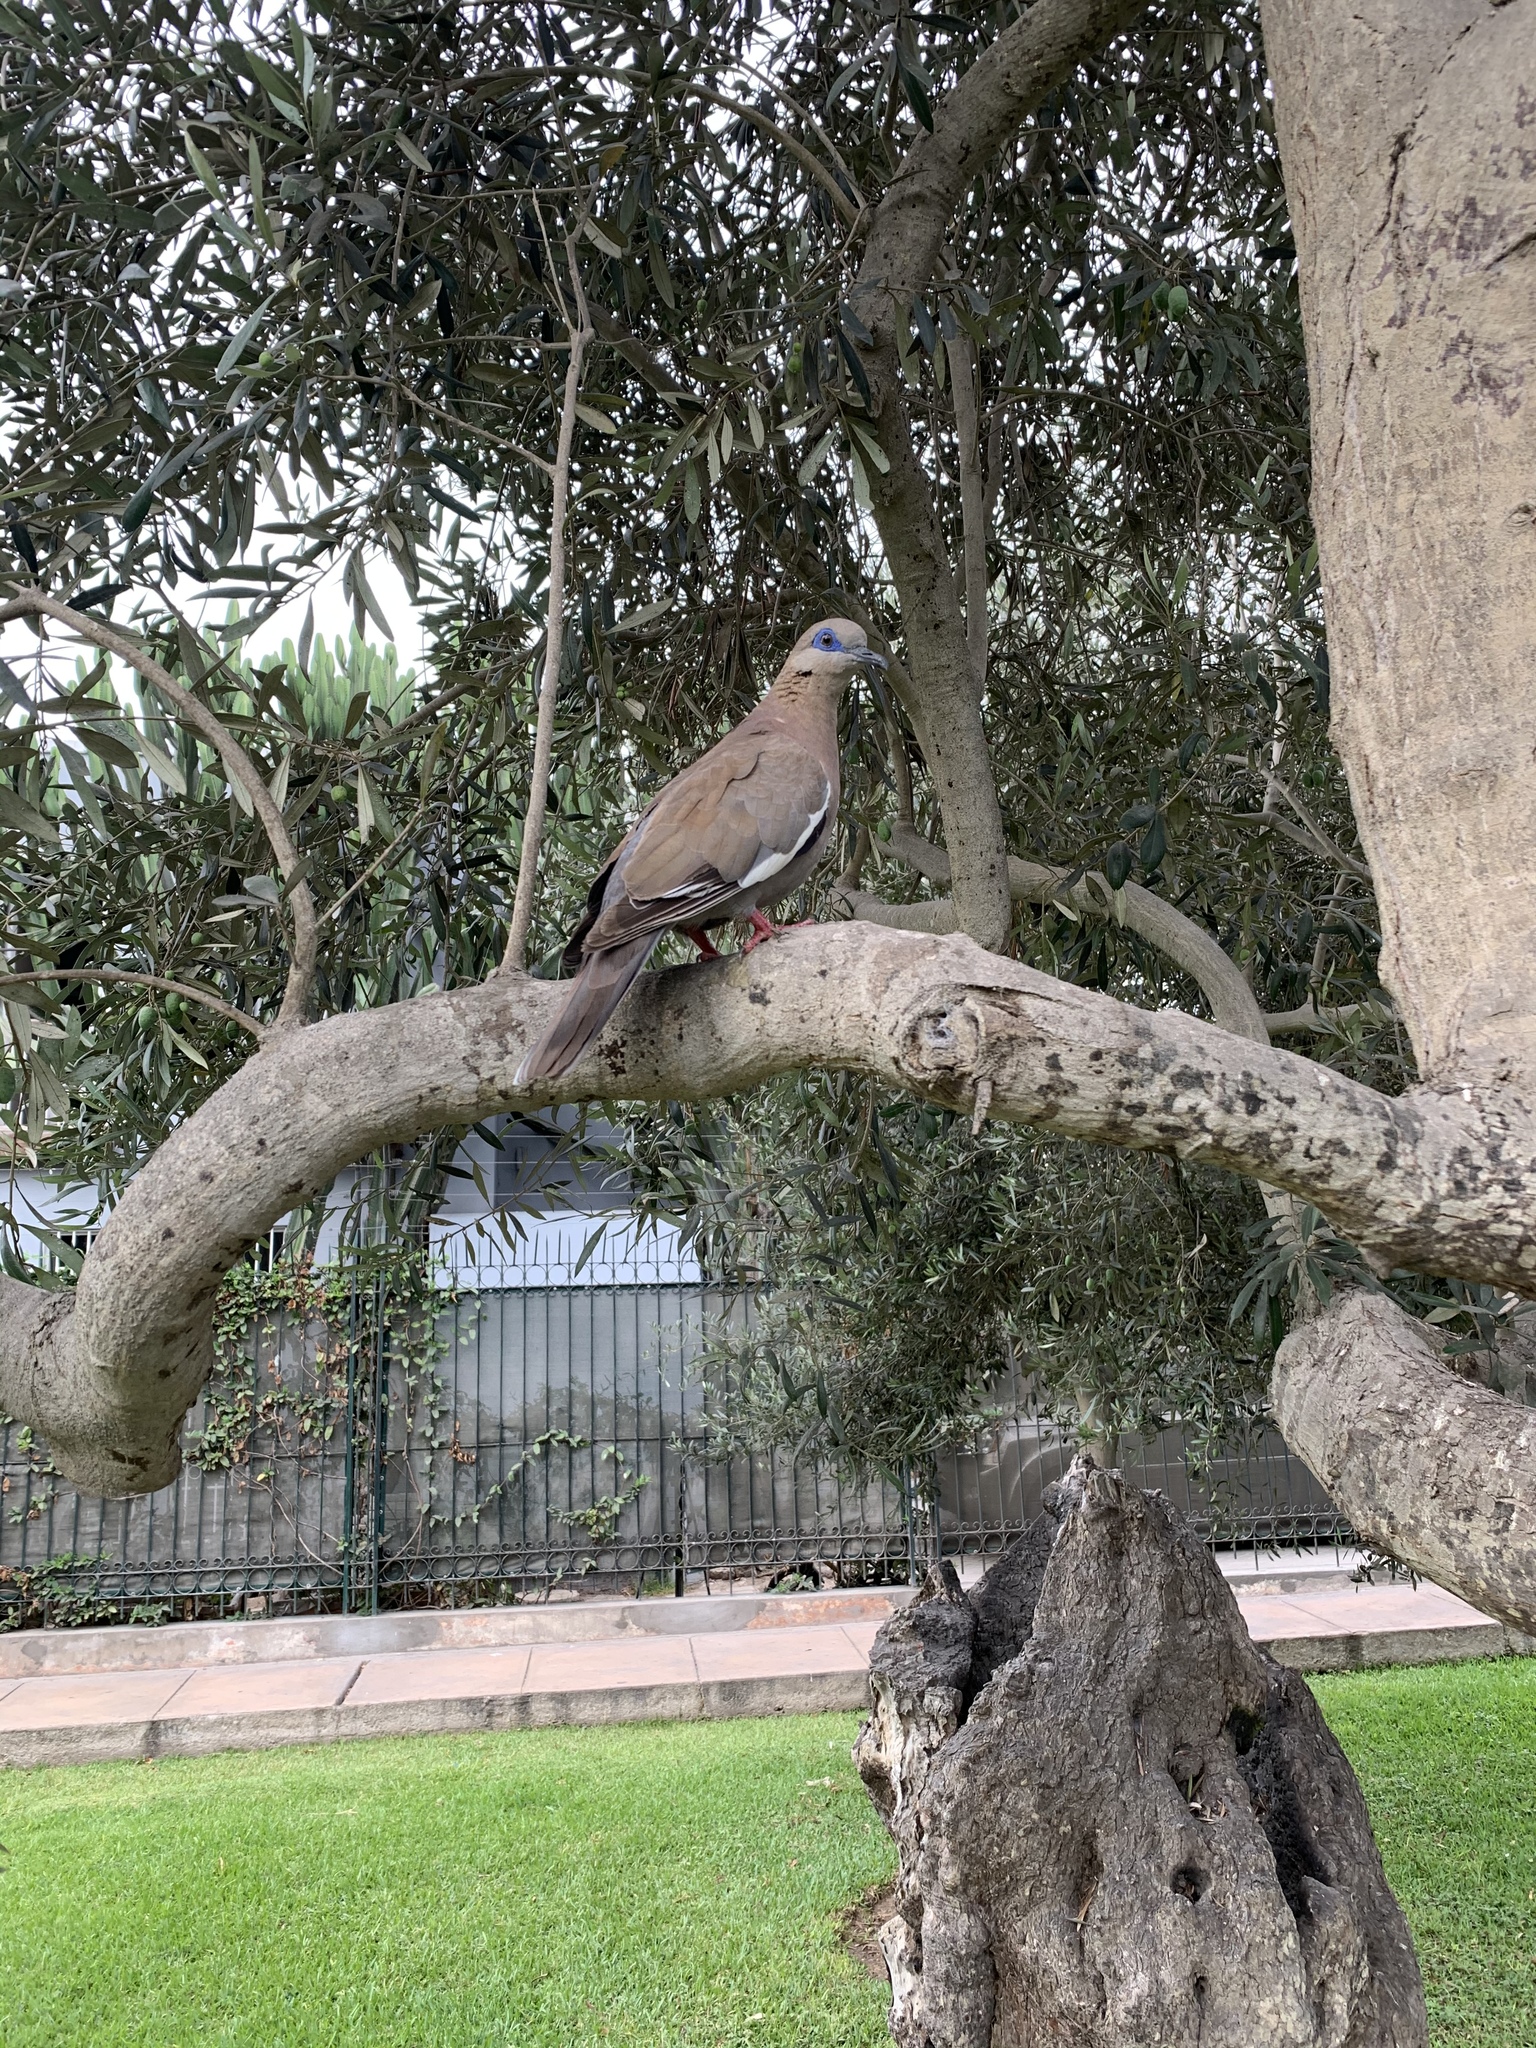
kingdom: Animalia
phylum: Chordata
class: Aves
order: Columbiformes
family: Columbidae
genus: Zenaida
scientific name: Zenaida meloda
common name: West peruvian dove
